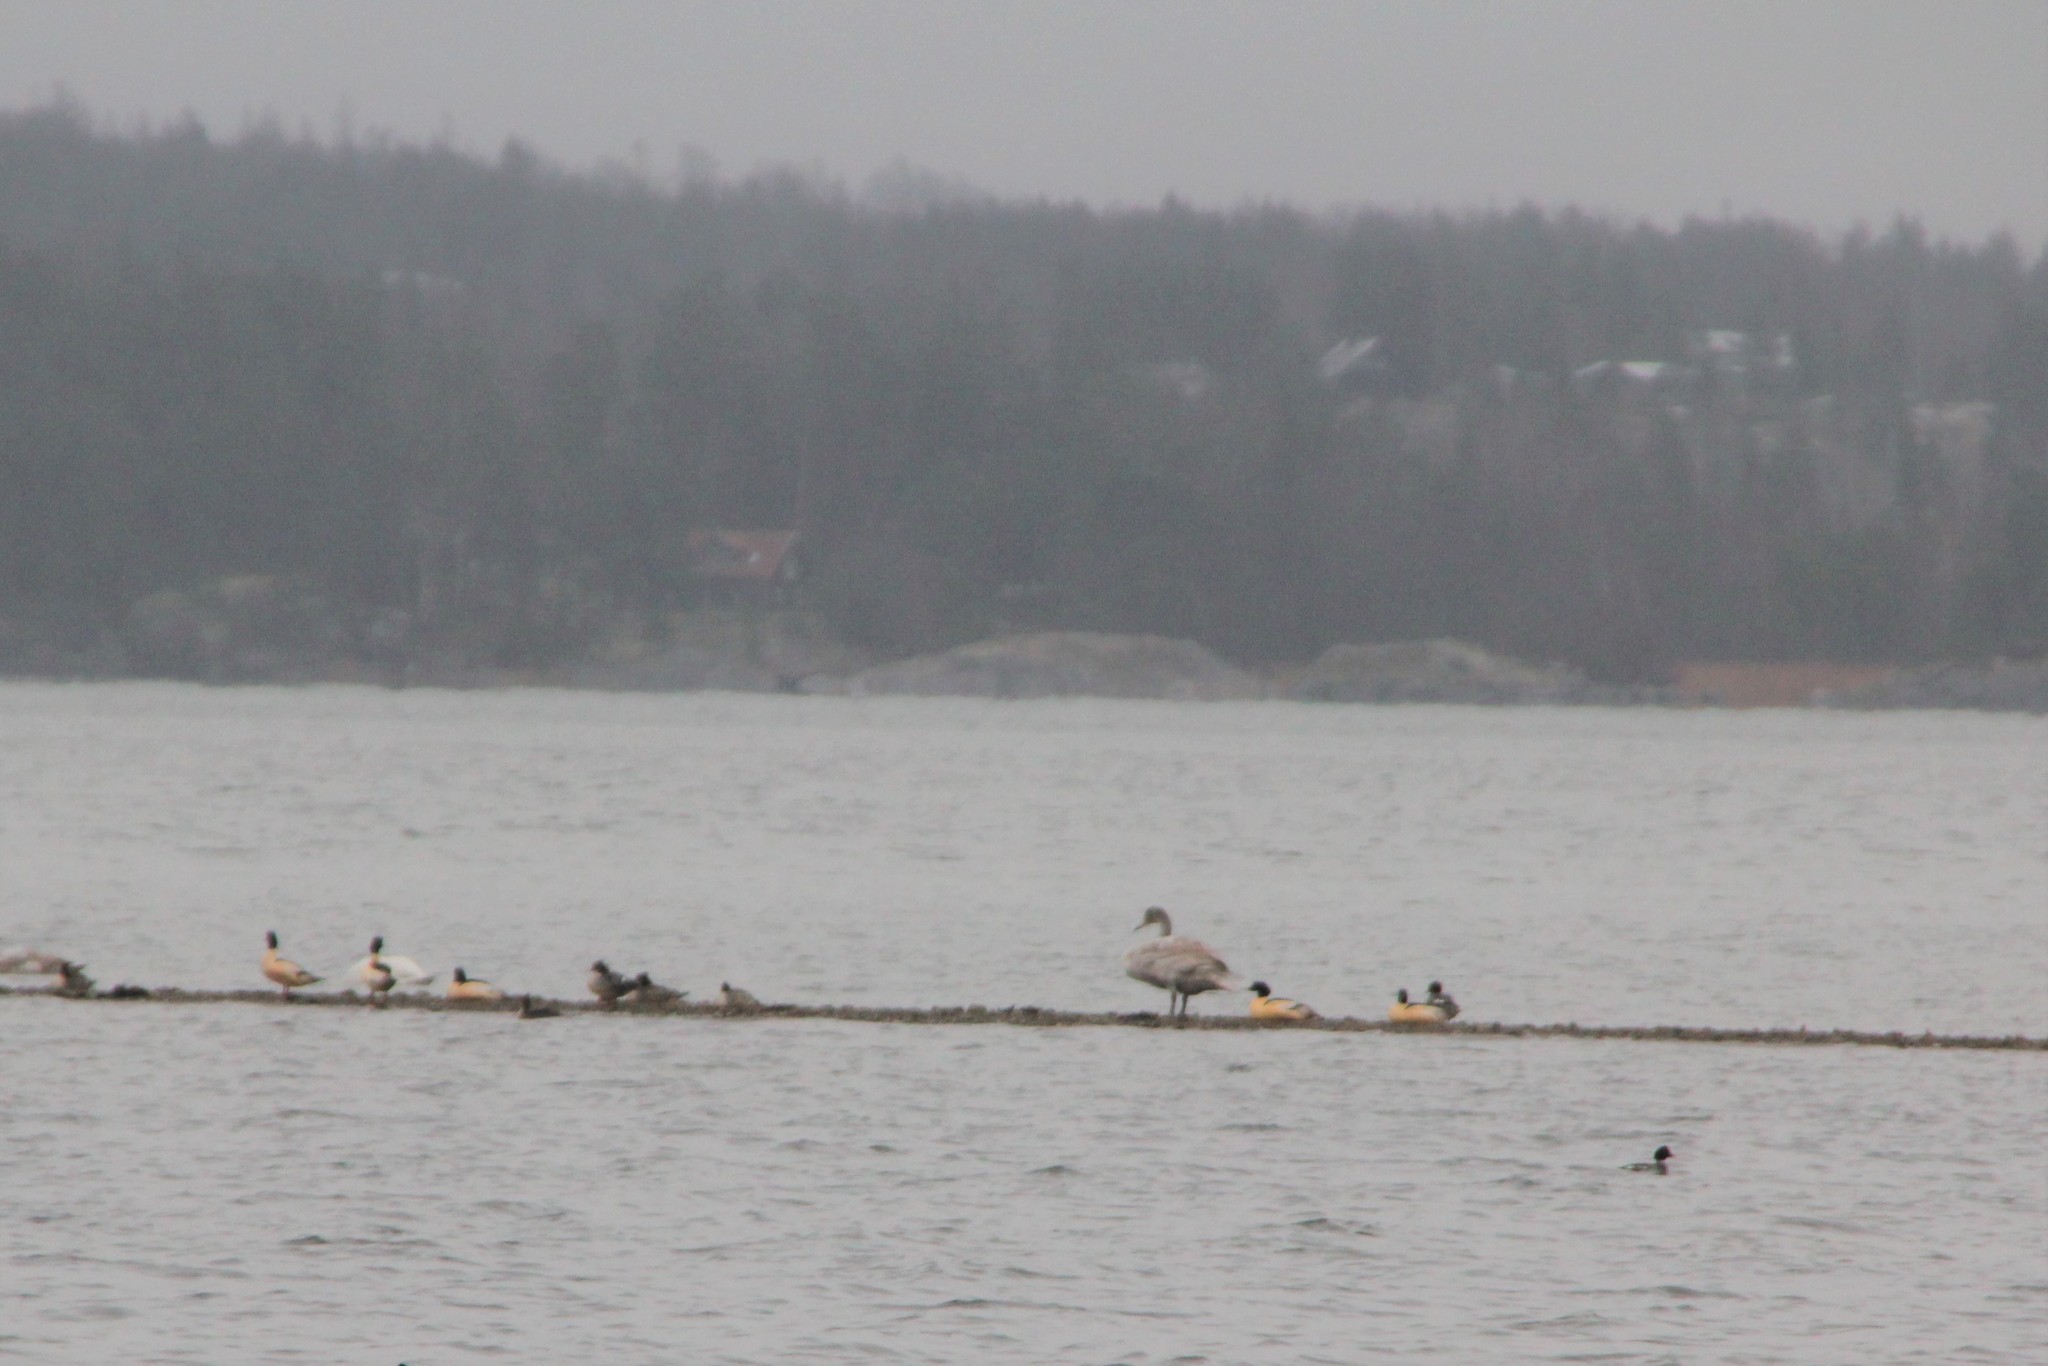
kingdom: Animalia
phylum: Chordata
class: Aves
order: Anseriformes
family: Anatidae
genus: Mergus
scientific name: Mergus merganser
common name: Common merganser
